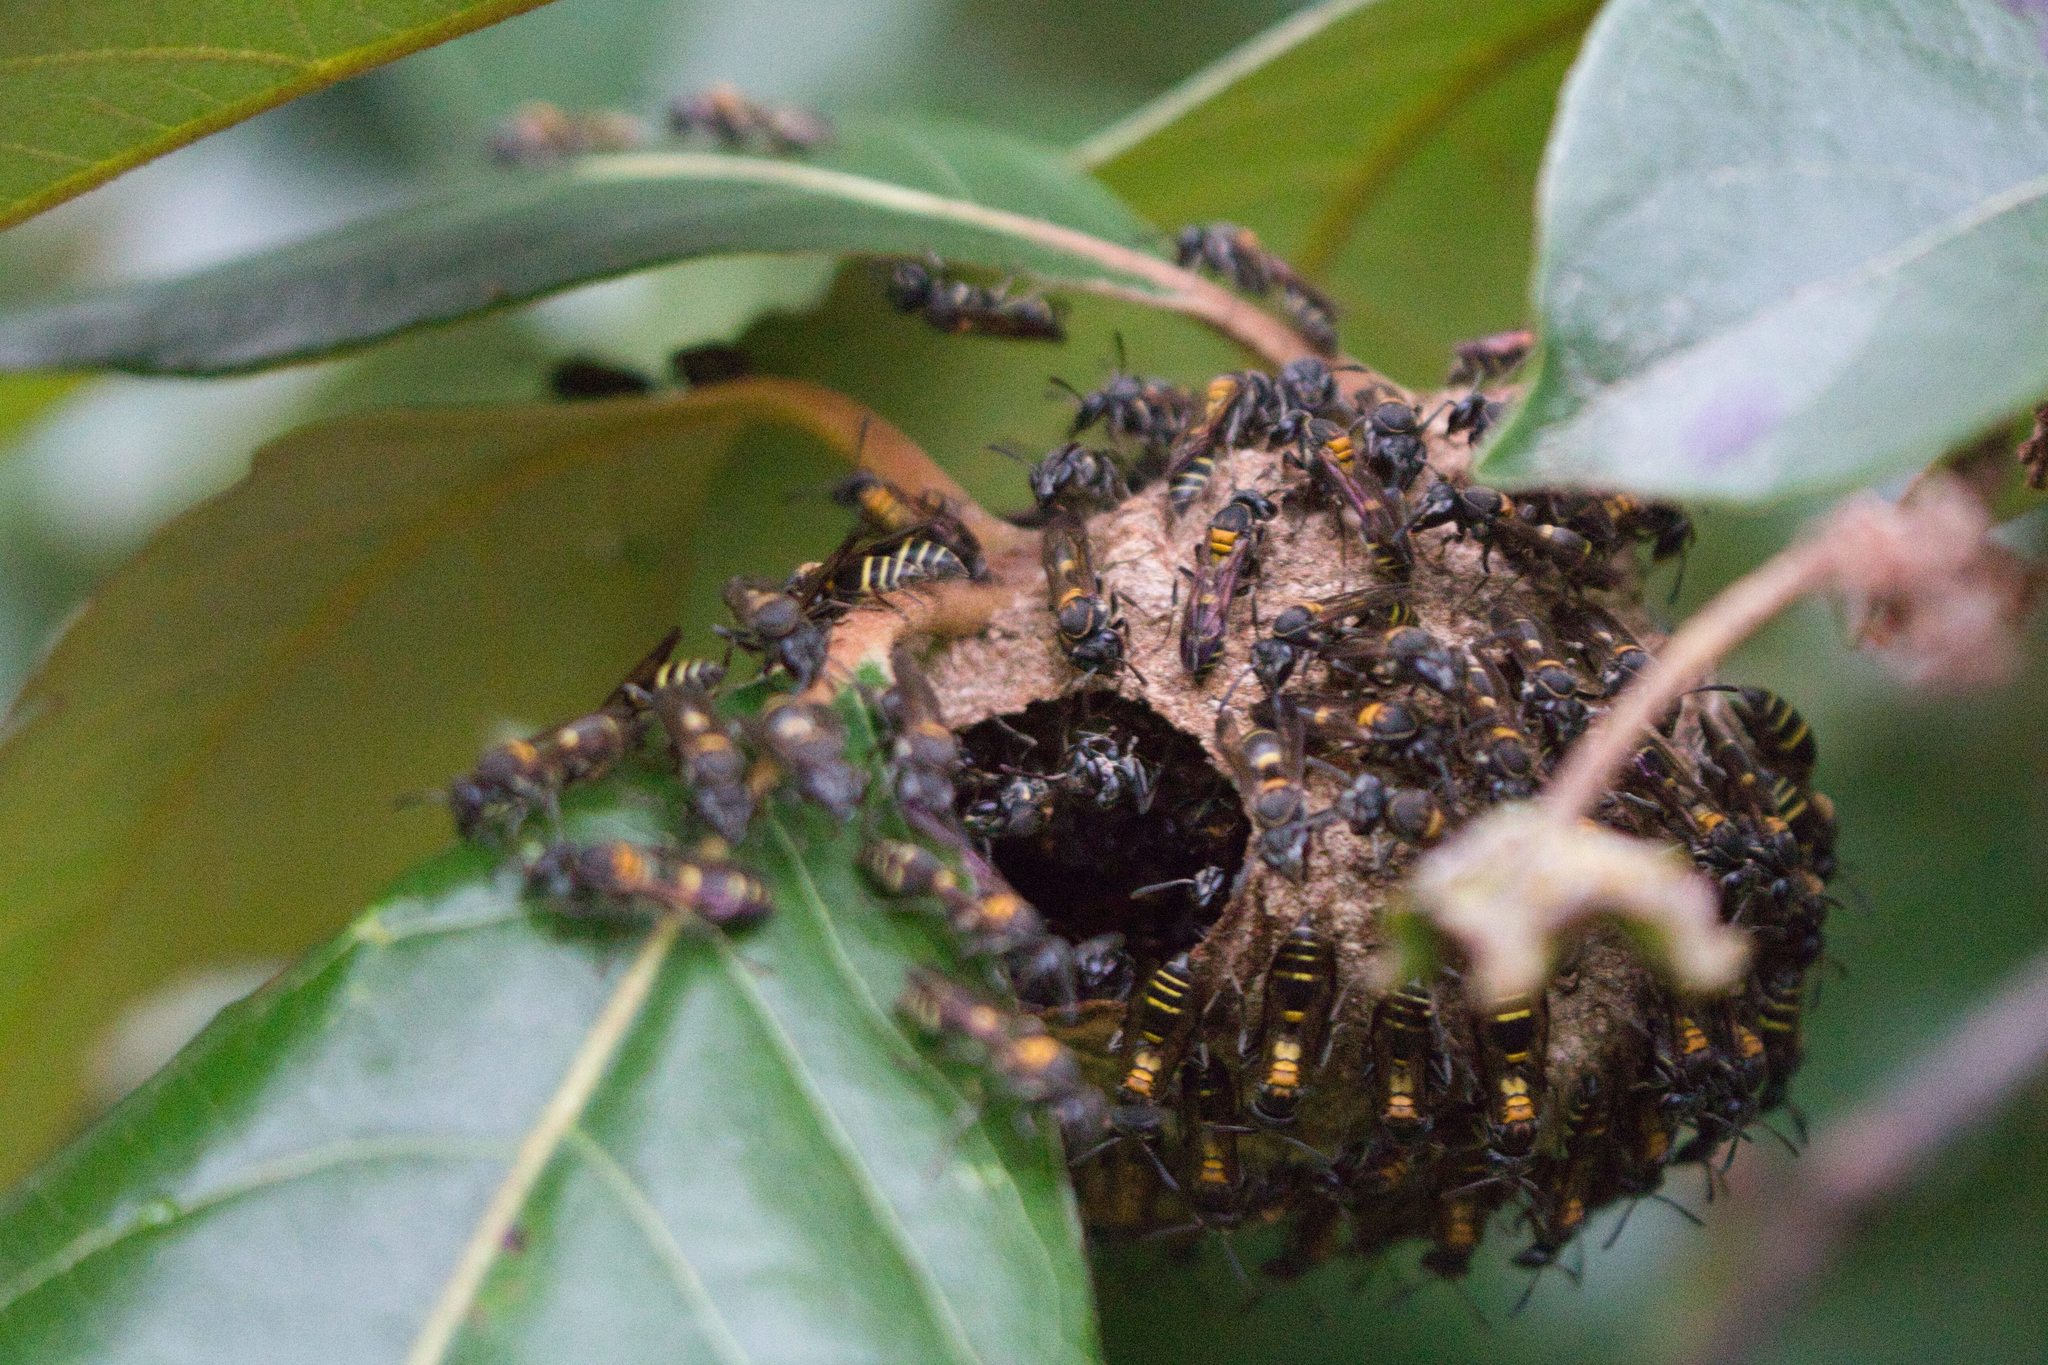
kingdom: Animalia
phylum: Arthropoda
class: Insecta
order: Hymenoptera
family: Eumenidae
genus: Polybia
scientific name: Polybia occidentalis
